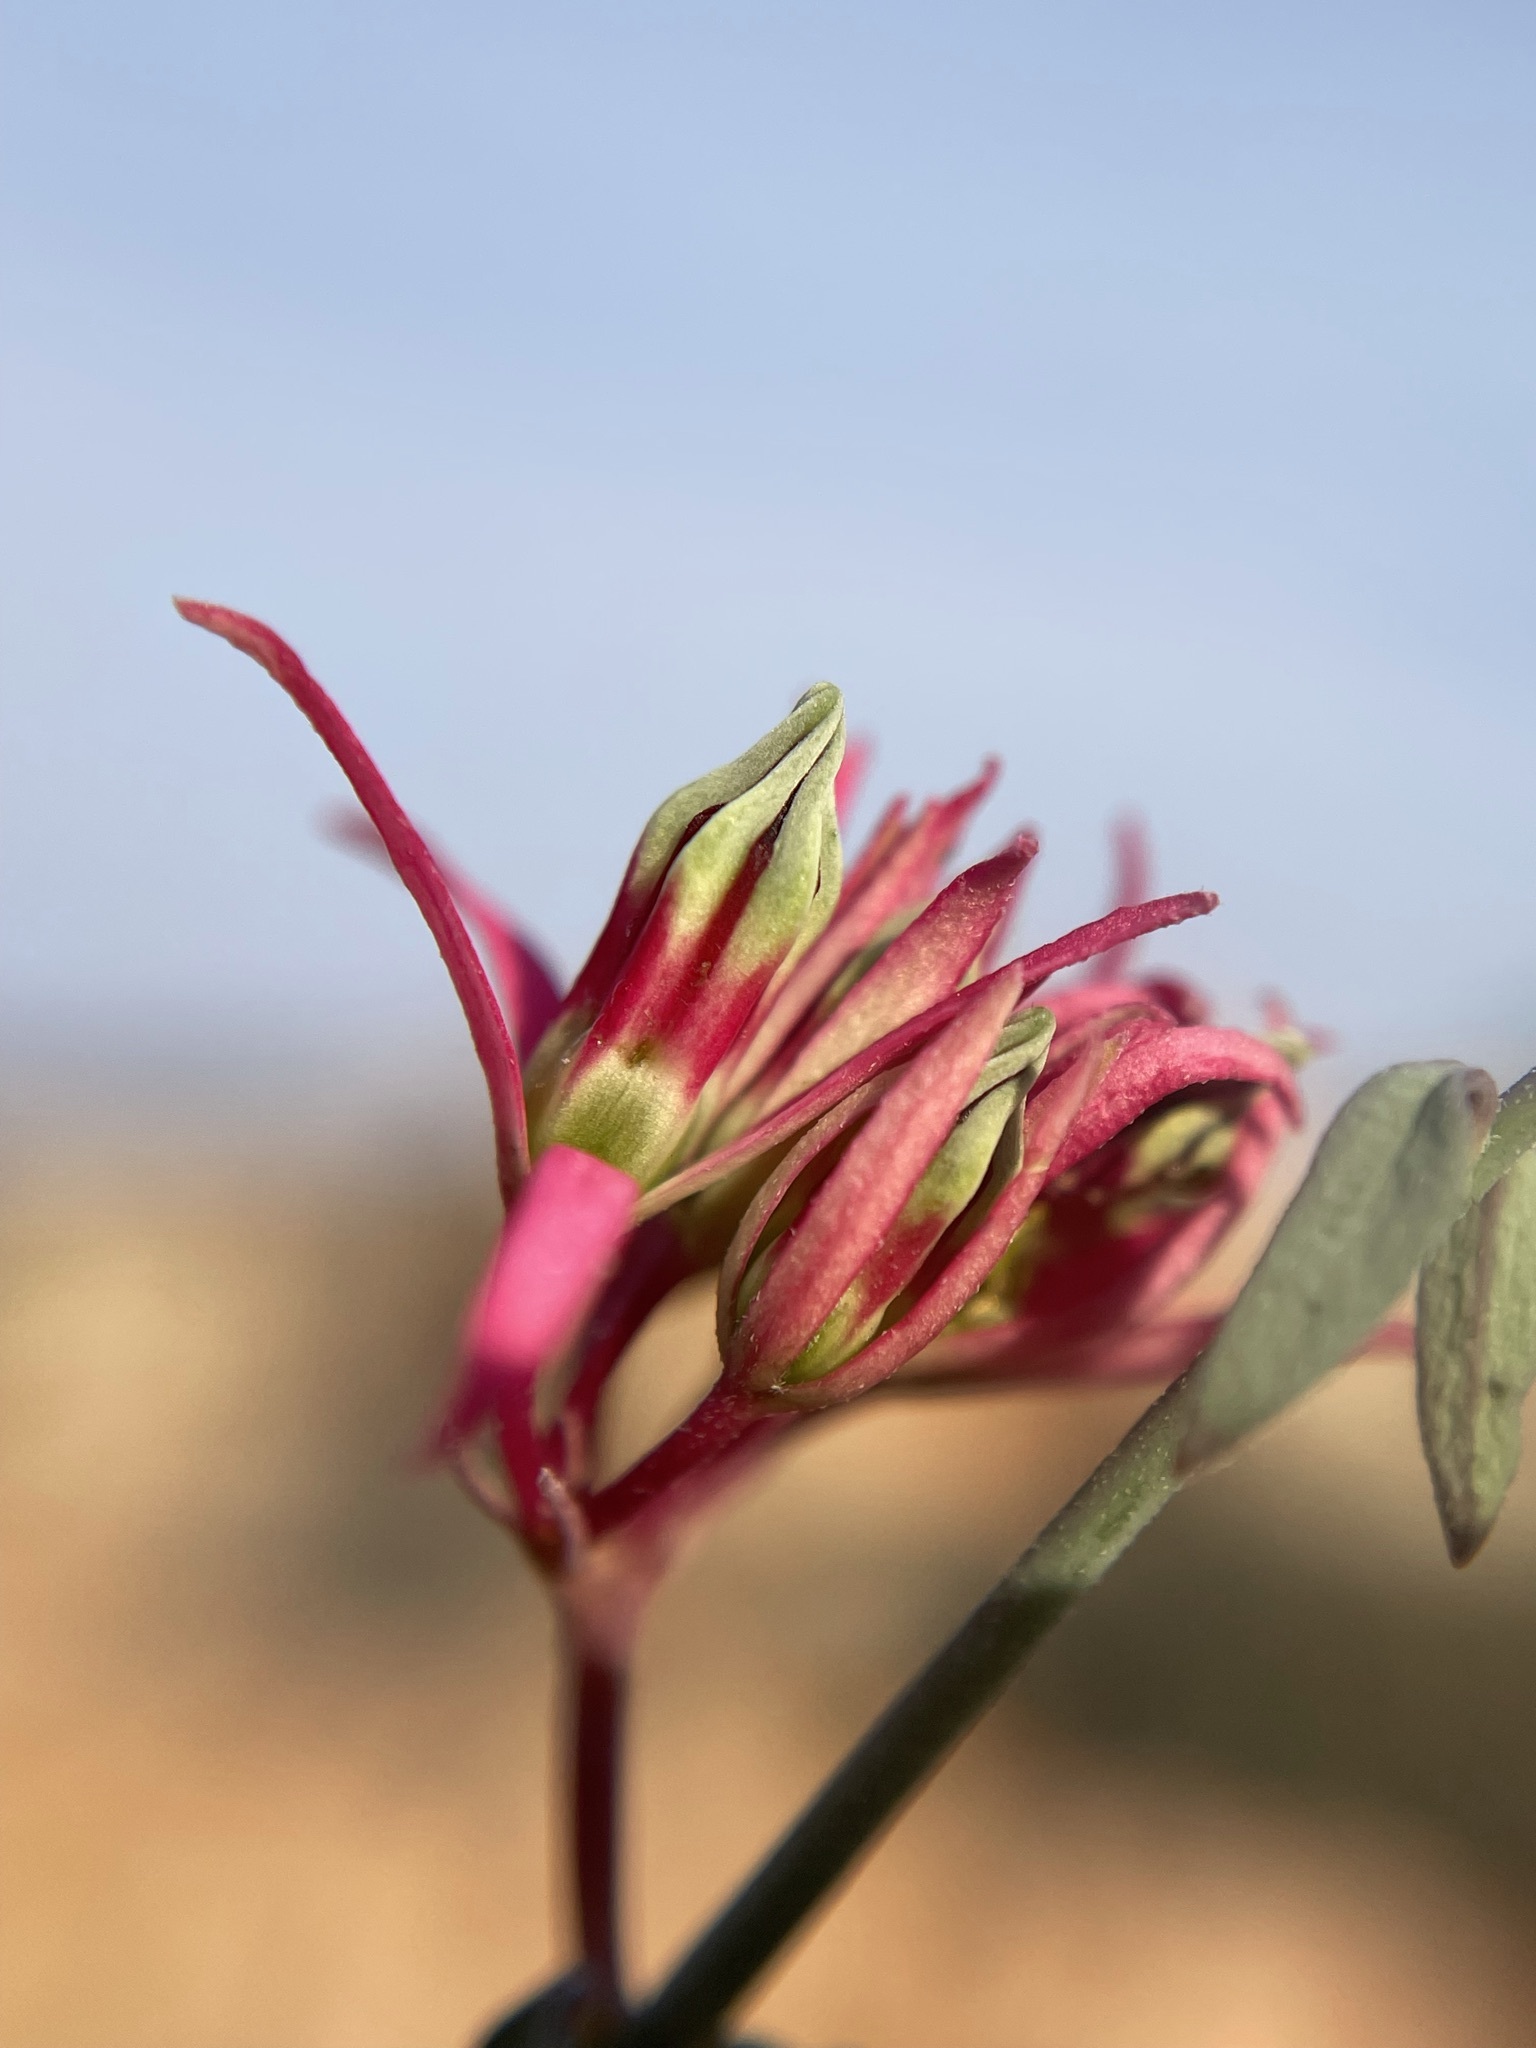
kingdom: Plantae
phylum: Tracheophyta
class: Magnoliopsida
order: Gentianales
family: Apocynaceae
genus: Microloma
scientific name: Microloma calycinum
